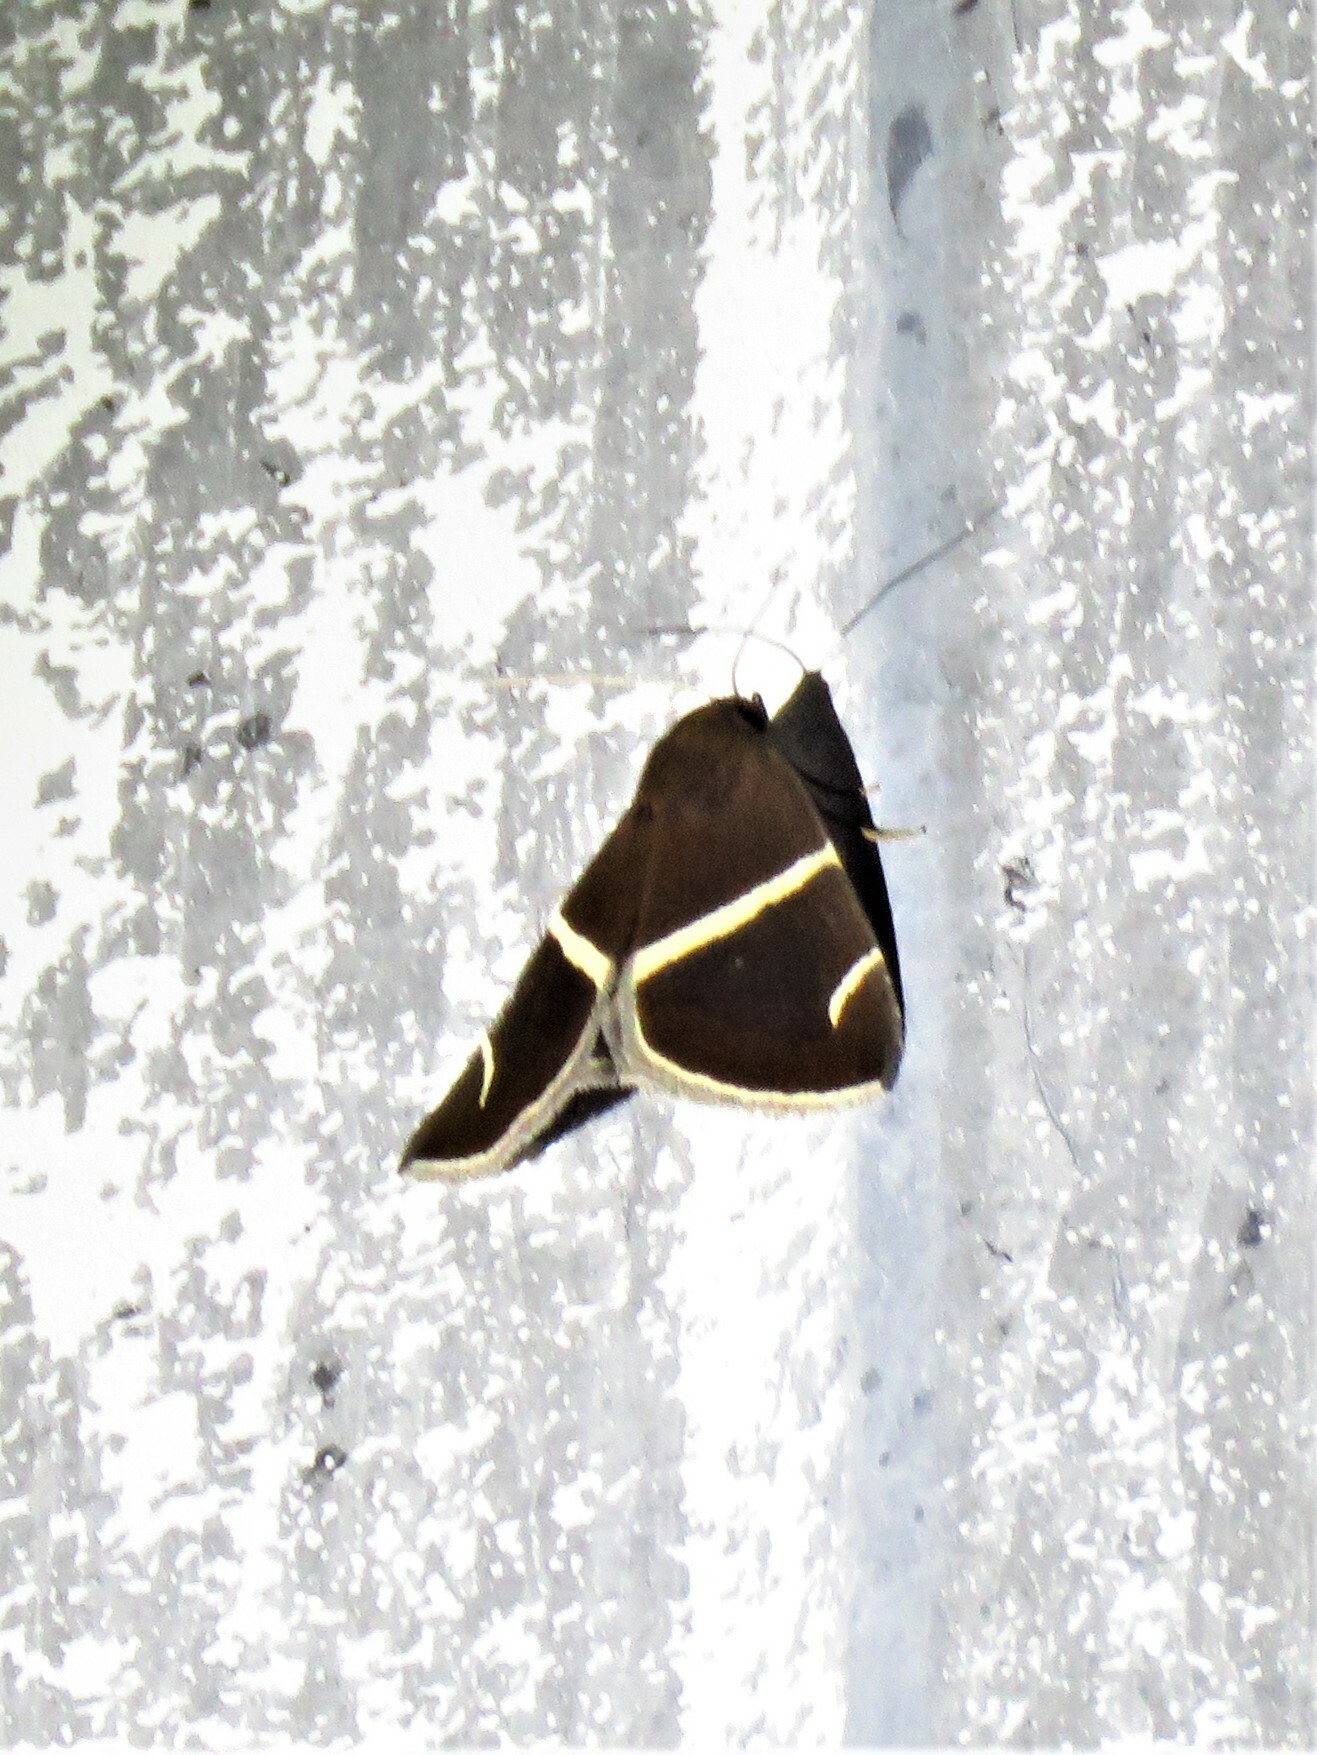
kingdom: Animalia
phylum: Arthropoda
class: Insecta
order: Lepidoptera
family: Erebidae
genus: Argyrostrotis
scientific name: Argyrostrotis anilis
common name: Short-lined chocolate
